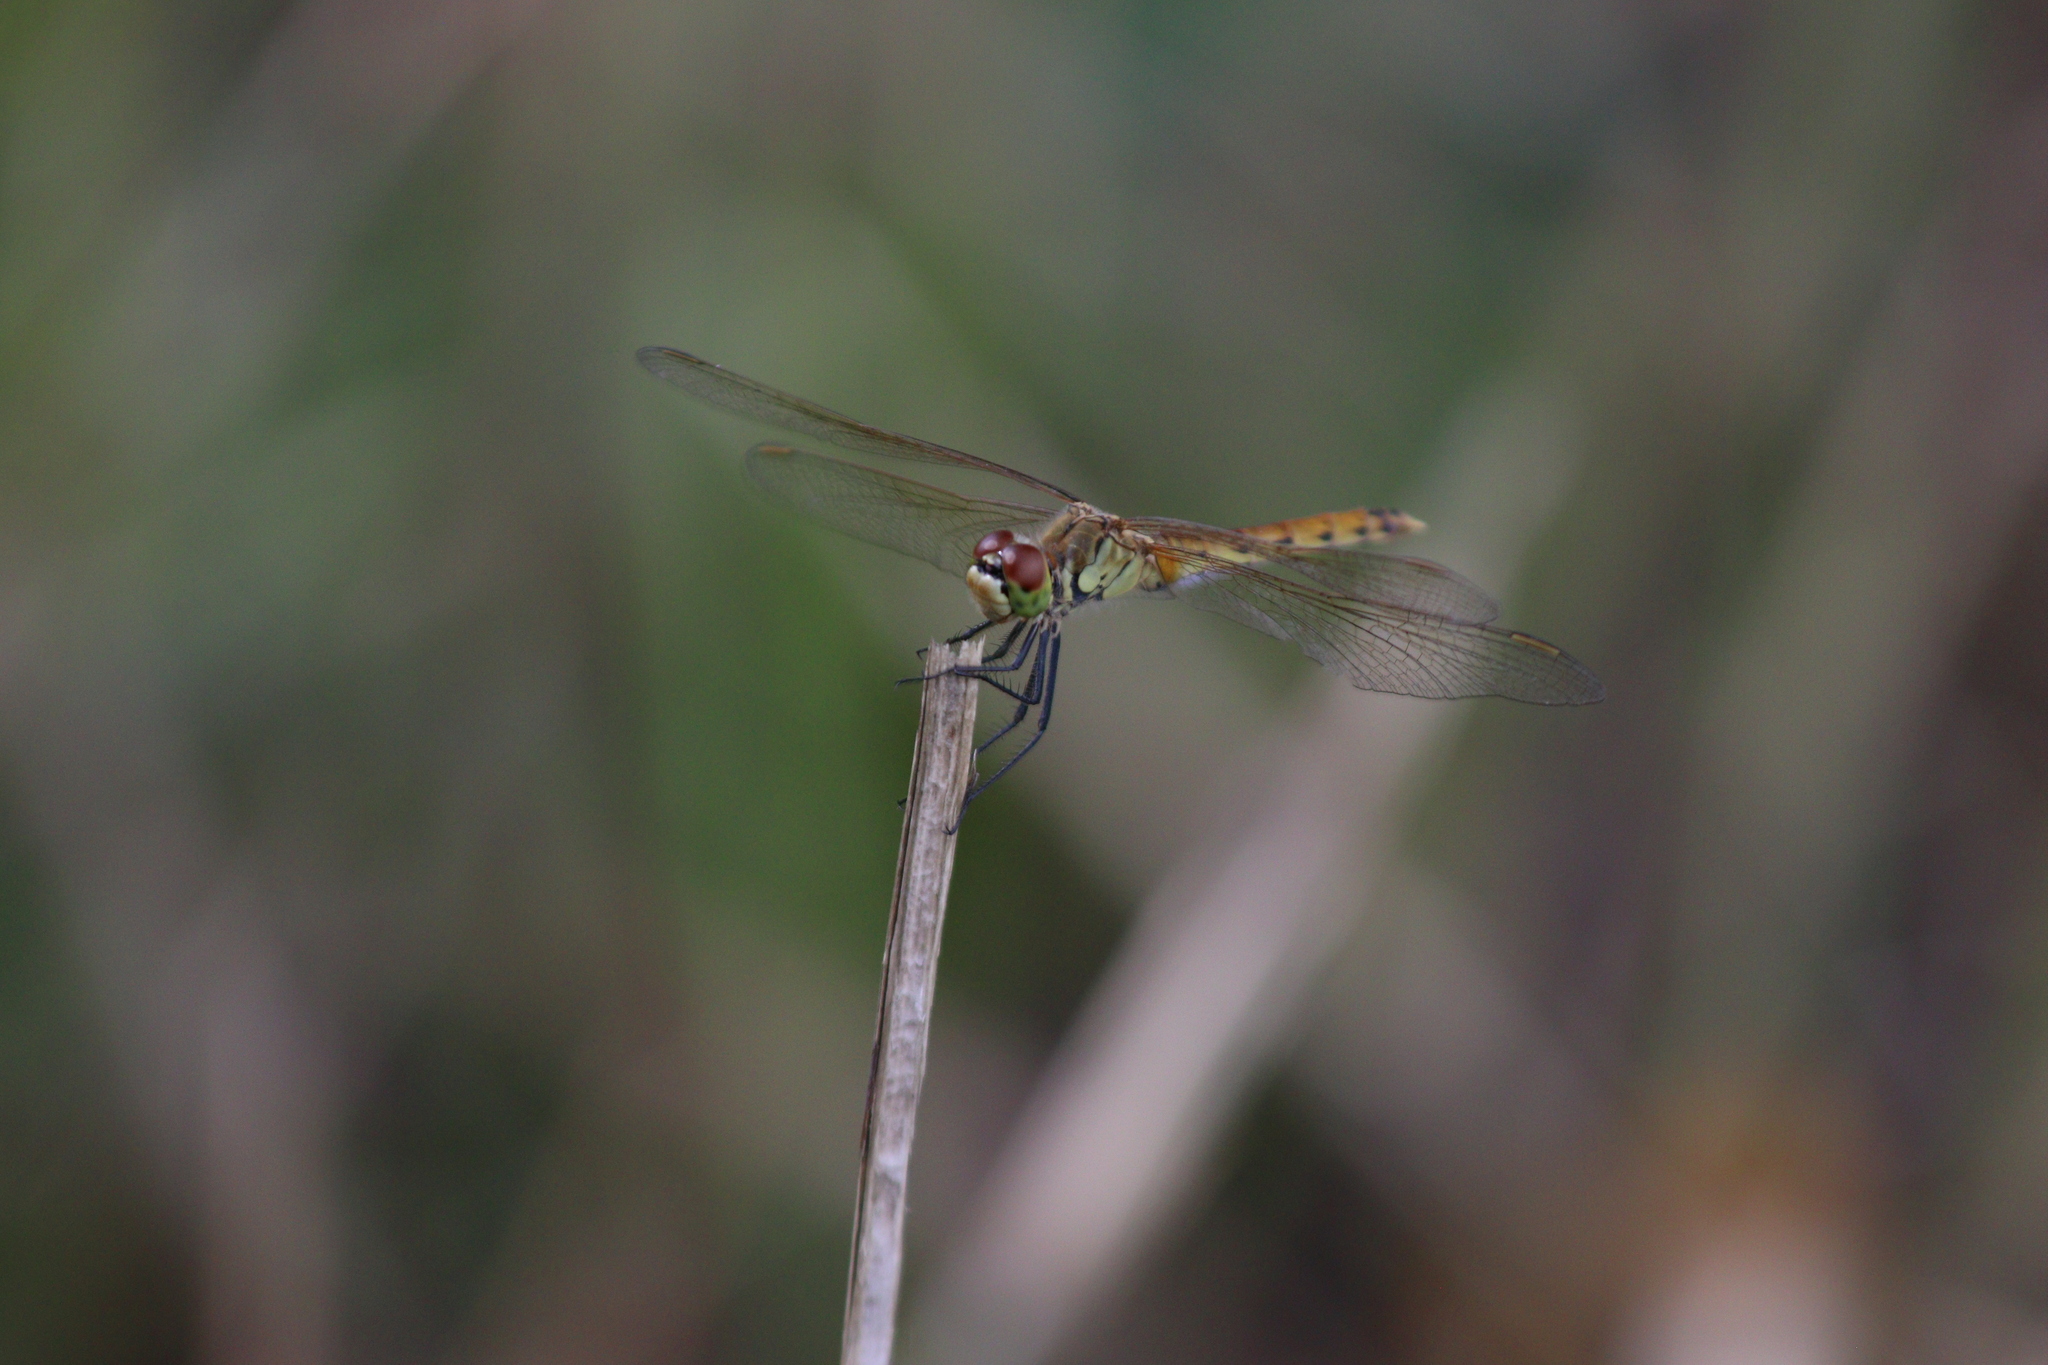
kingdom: Animalia
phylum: Arthropoda
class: Insecta
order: Odonata
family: Libellulidae
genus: Sympetrum
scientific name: Sympetrum depressiusculum
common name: Spotted darter
